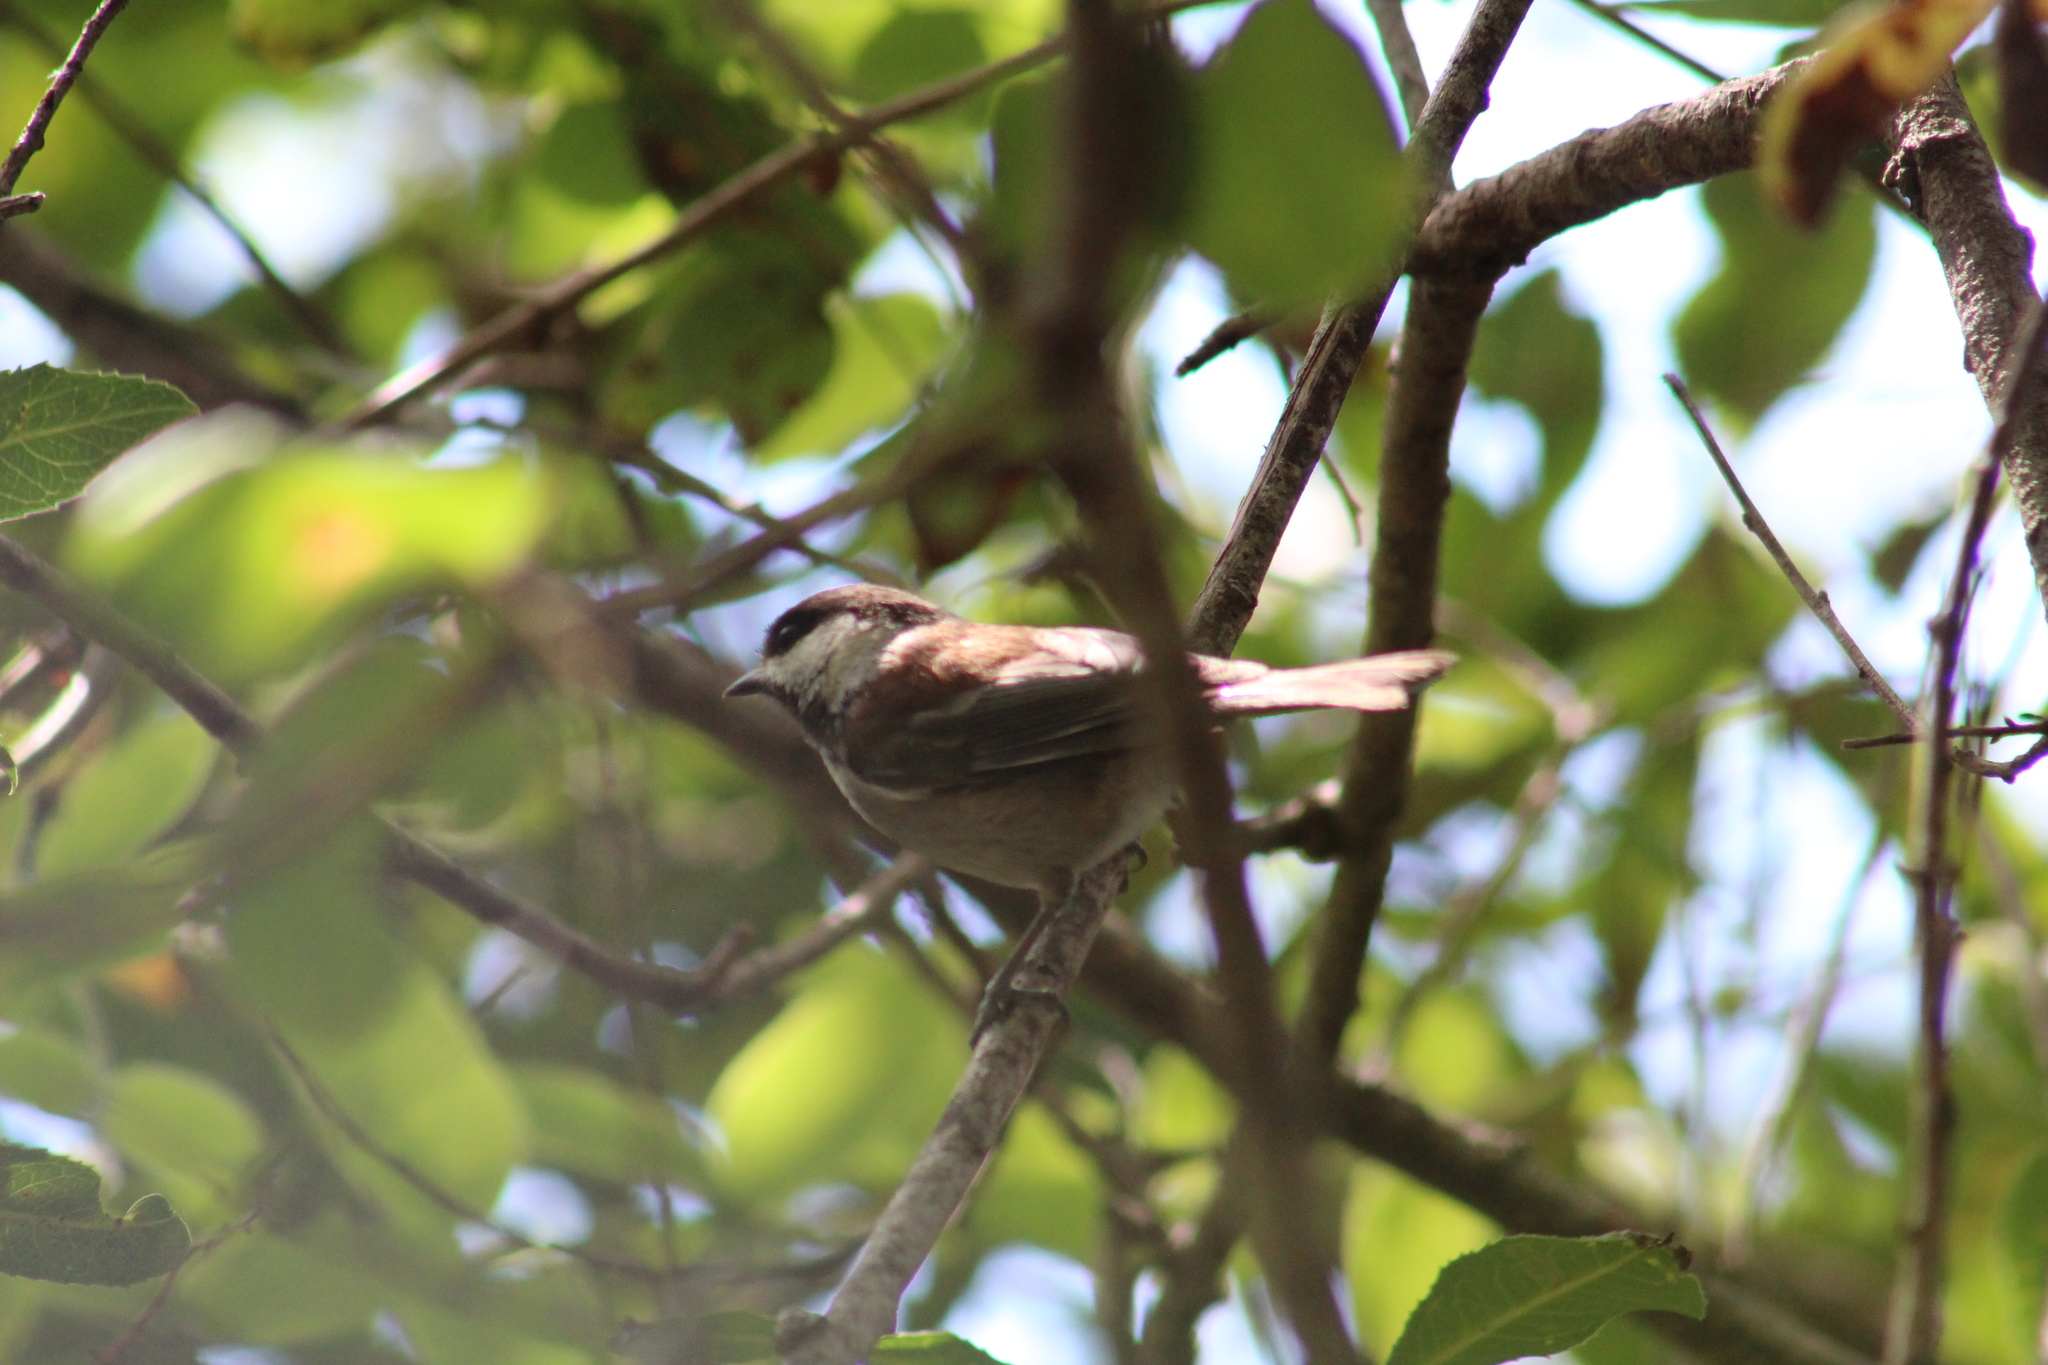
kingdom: Animalia
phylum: Chordata
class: Aves
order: Passeriformes
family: Paridae
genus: Poecile
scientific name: Poecile rufescens
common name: Chestnut-backed chickadee
